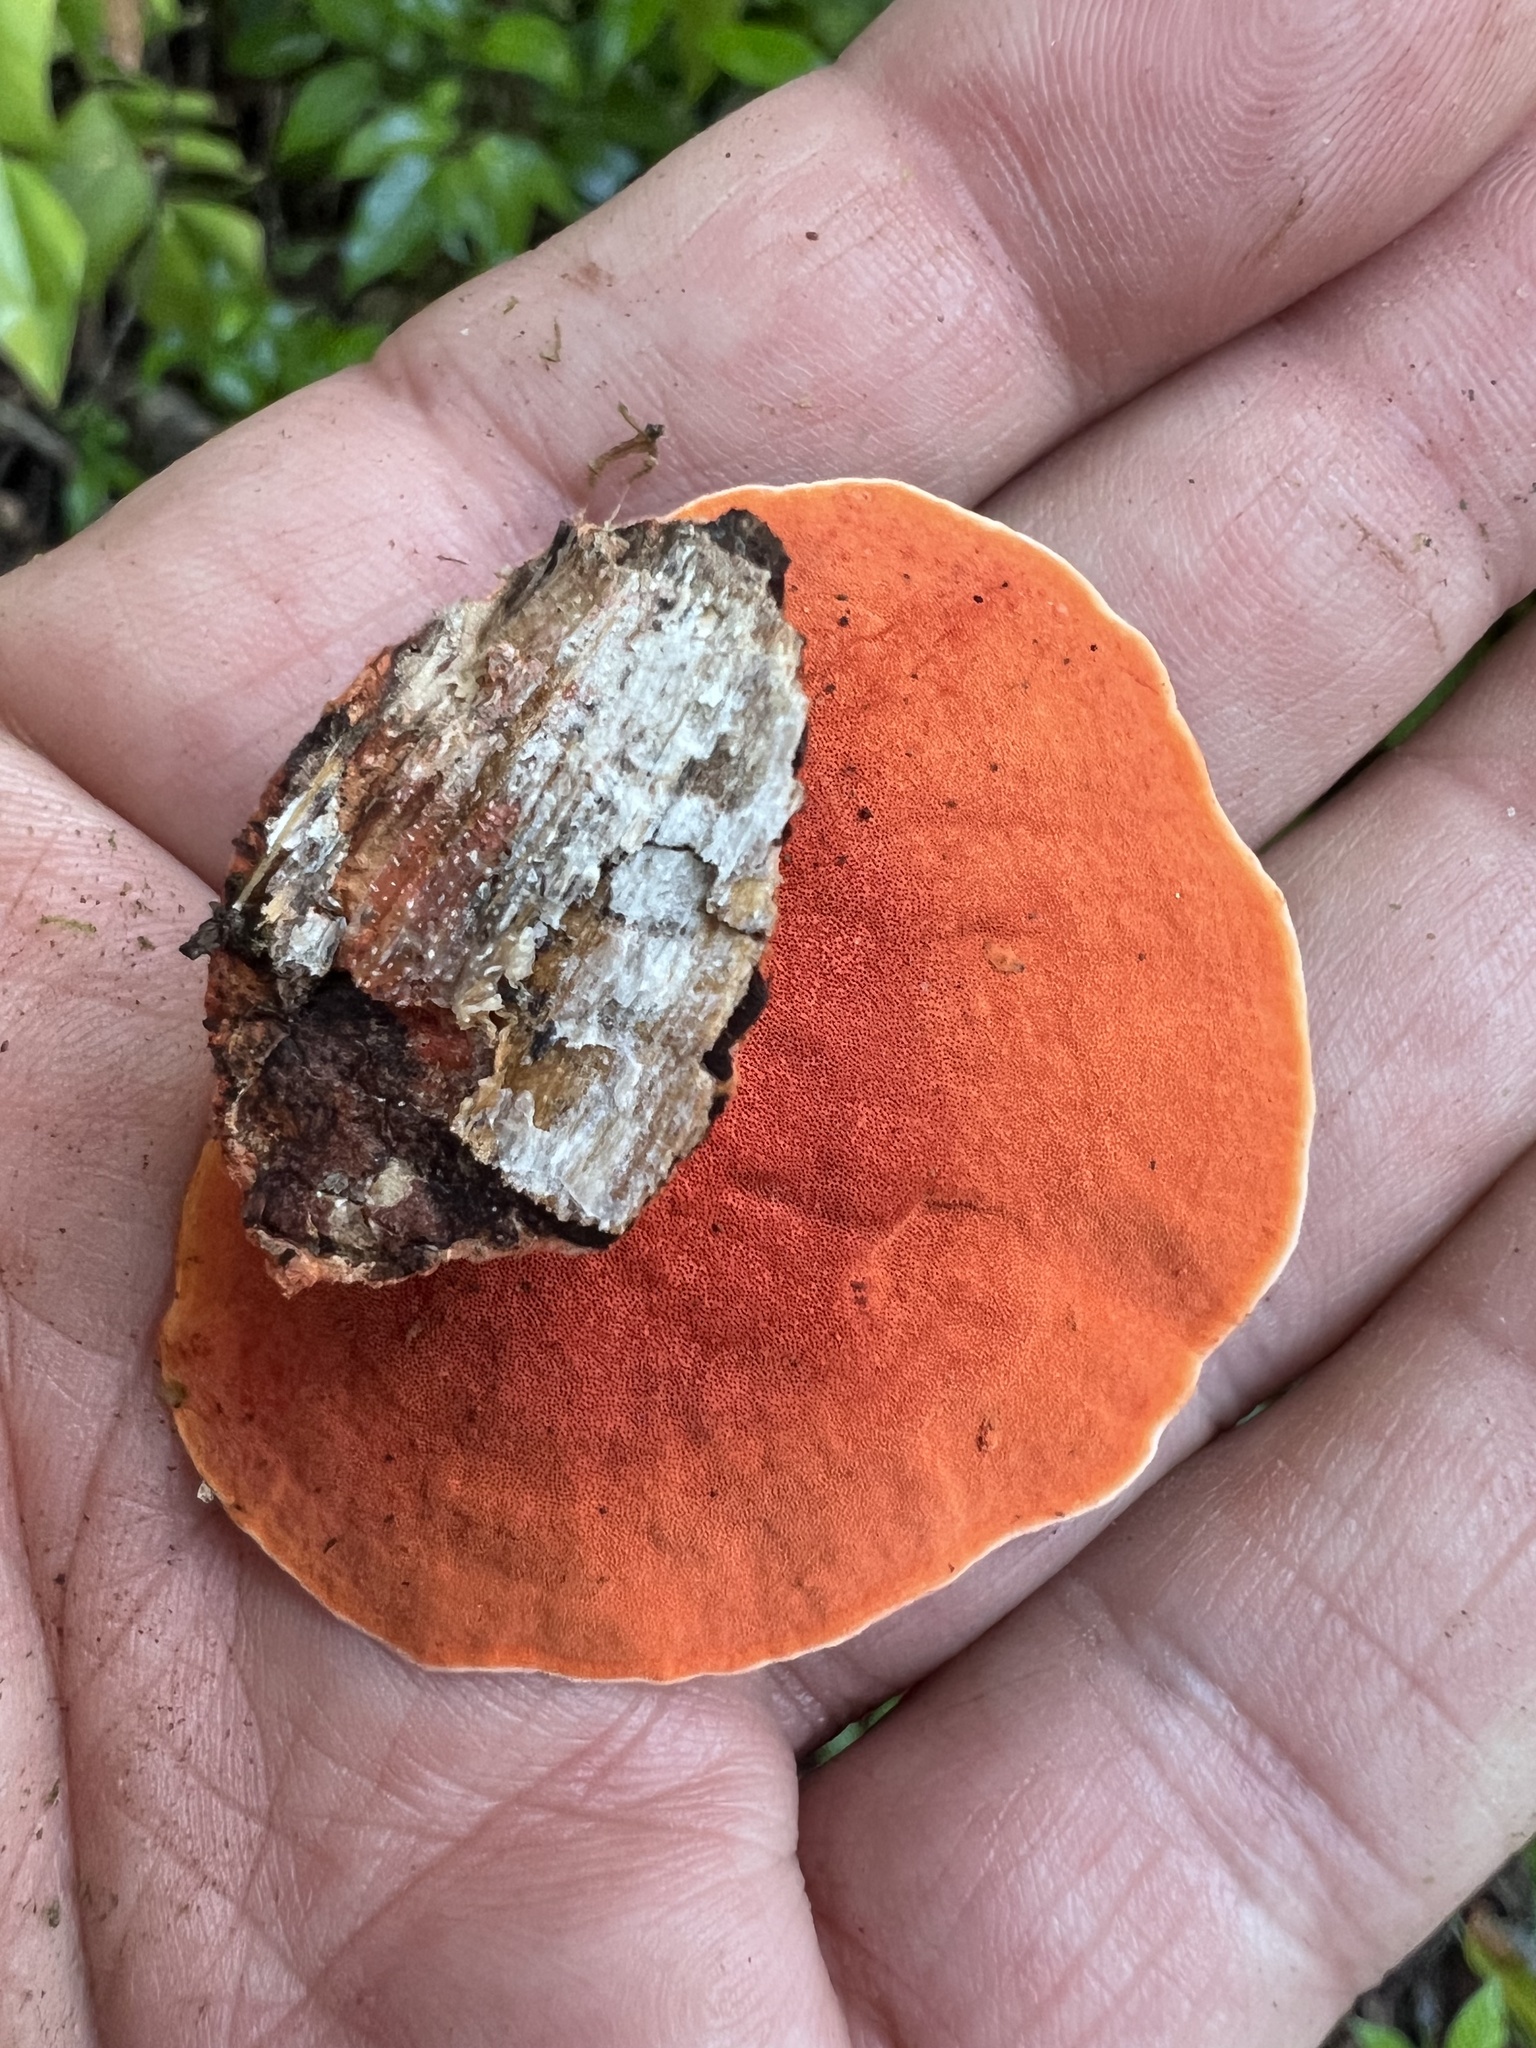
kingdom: Fungi
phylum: Basidiomycota
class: Agaricomycetes
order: Polyporales
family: Polyporaceae
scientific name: Polyporaceae
